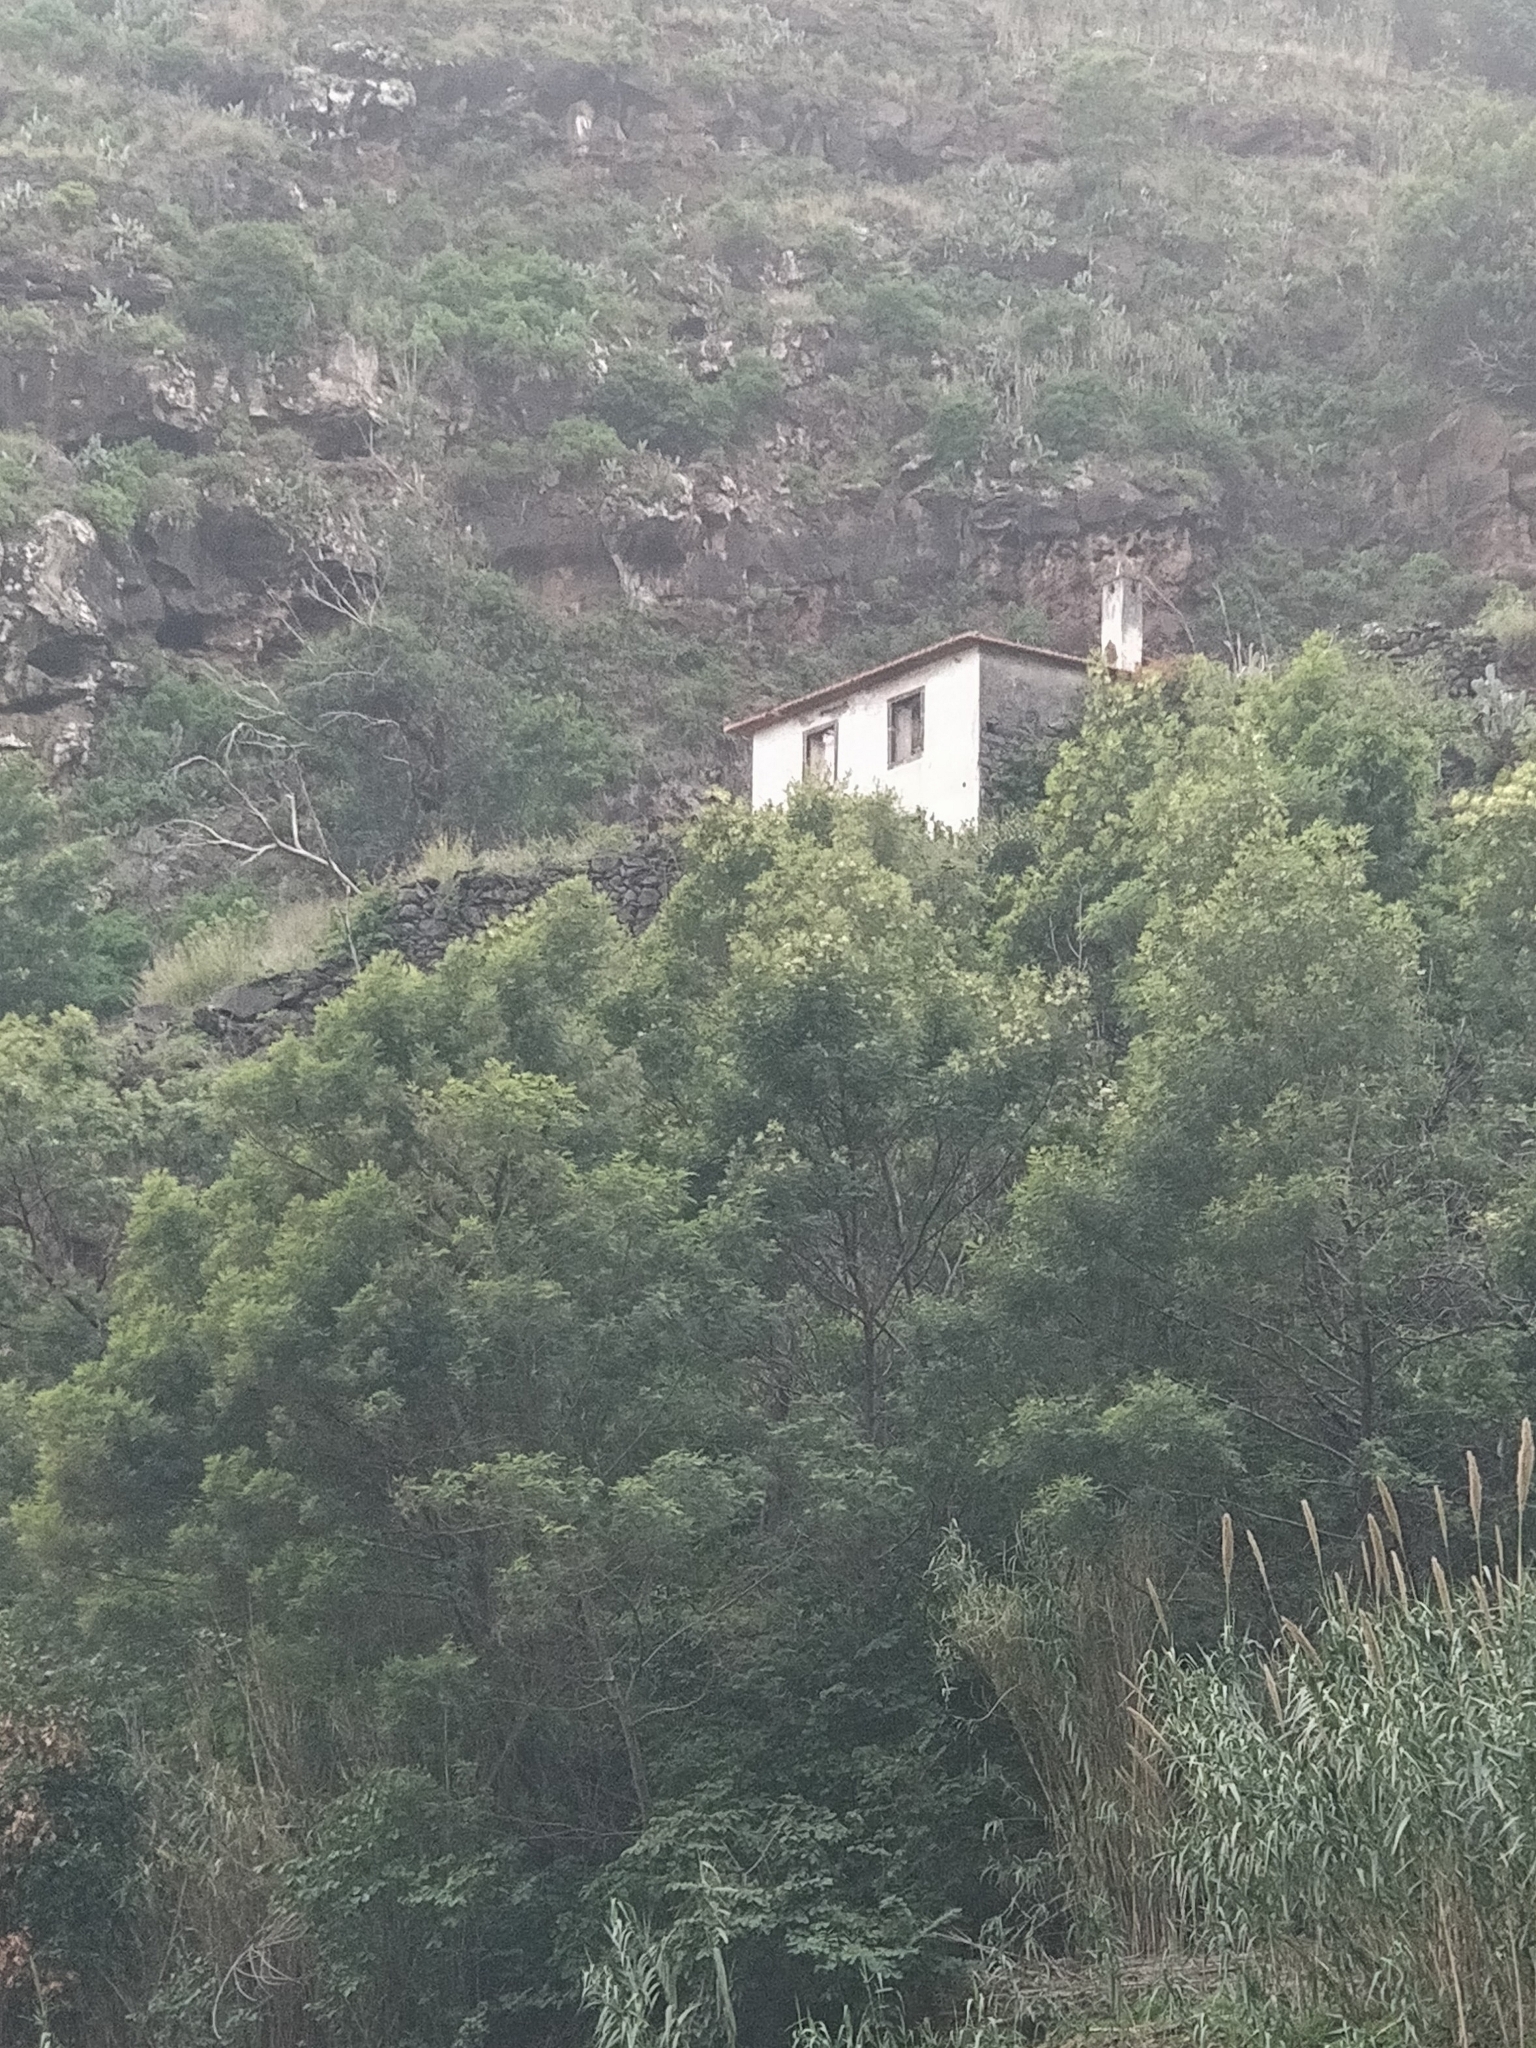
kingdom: Plantae
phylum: Tracheophyta
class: Magnoliopsida
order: Fabales
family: Fabaceae
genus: Acacia
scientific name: Acacia mearnsii
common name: Black wattle
